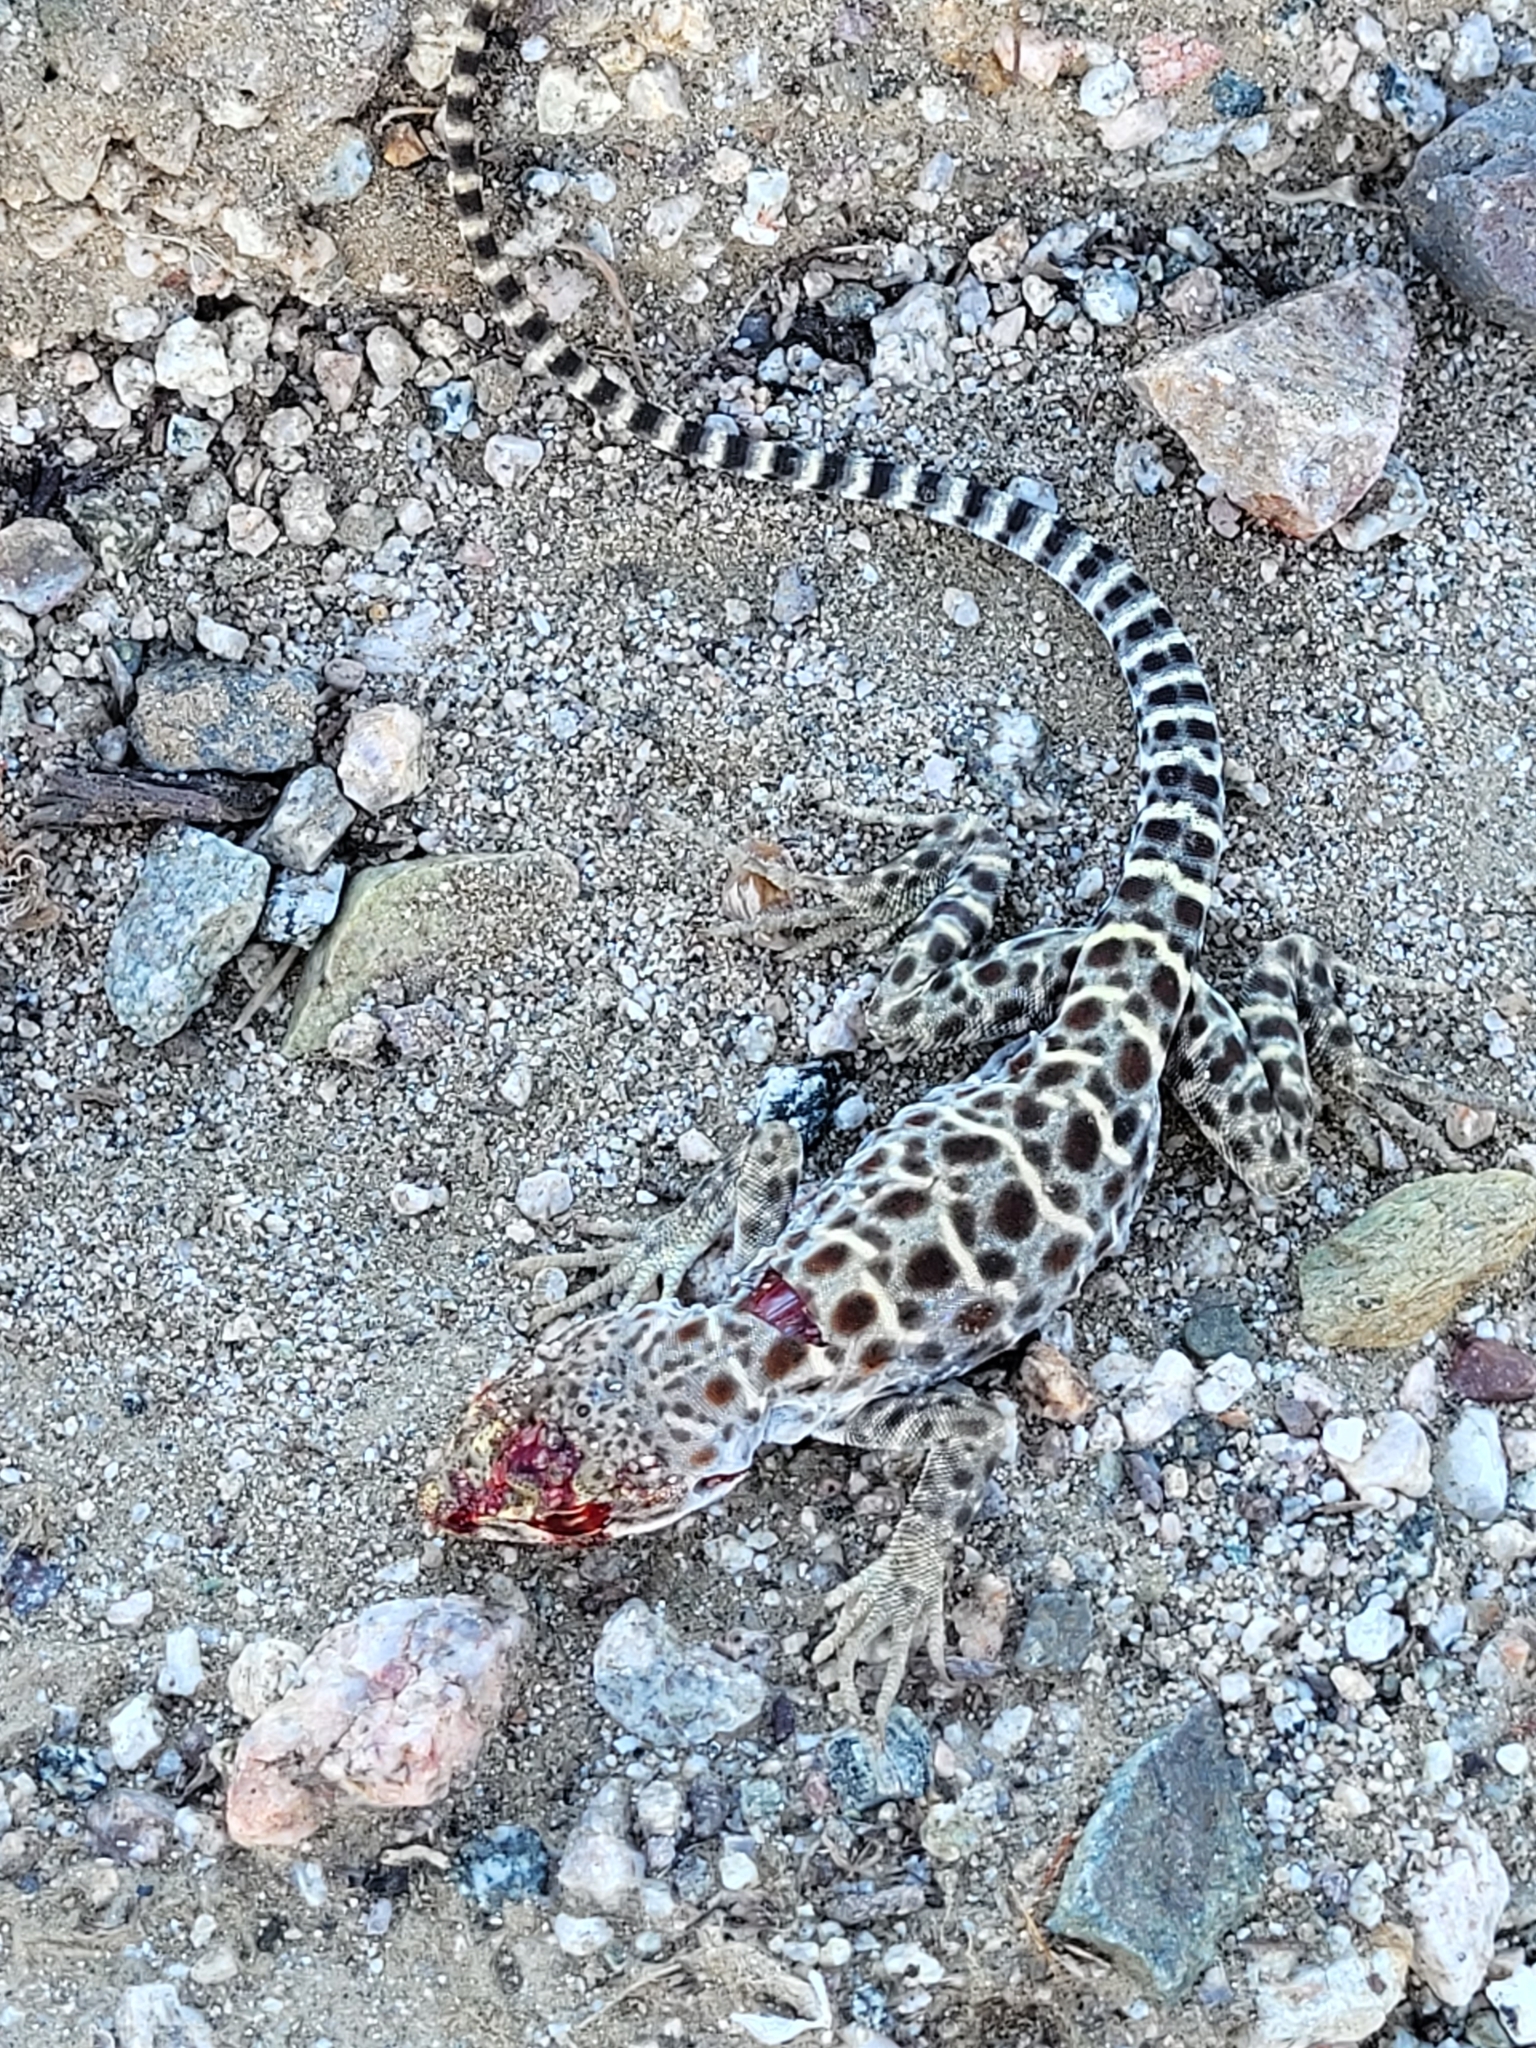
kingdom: Animalia
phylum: Chordata
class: Squamata
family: Crotaphytidae
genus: Gambelia
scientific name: Gambelia wislizenii
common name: Longnose leopard lizard
